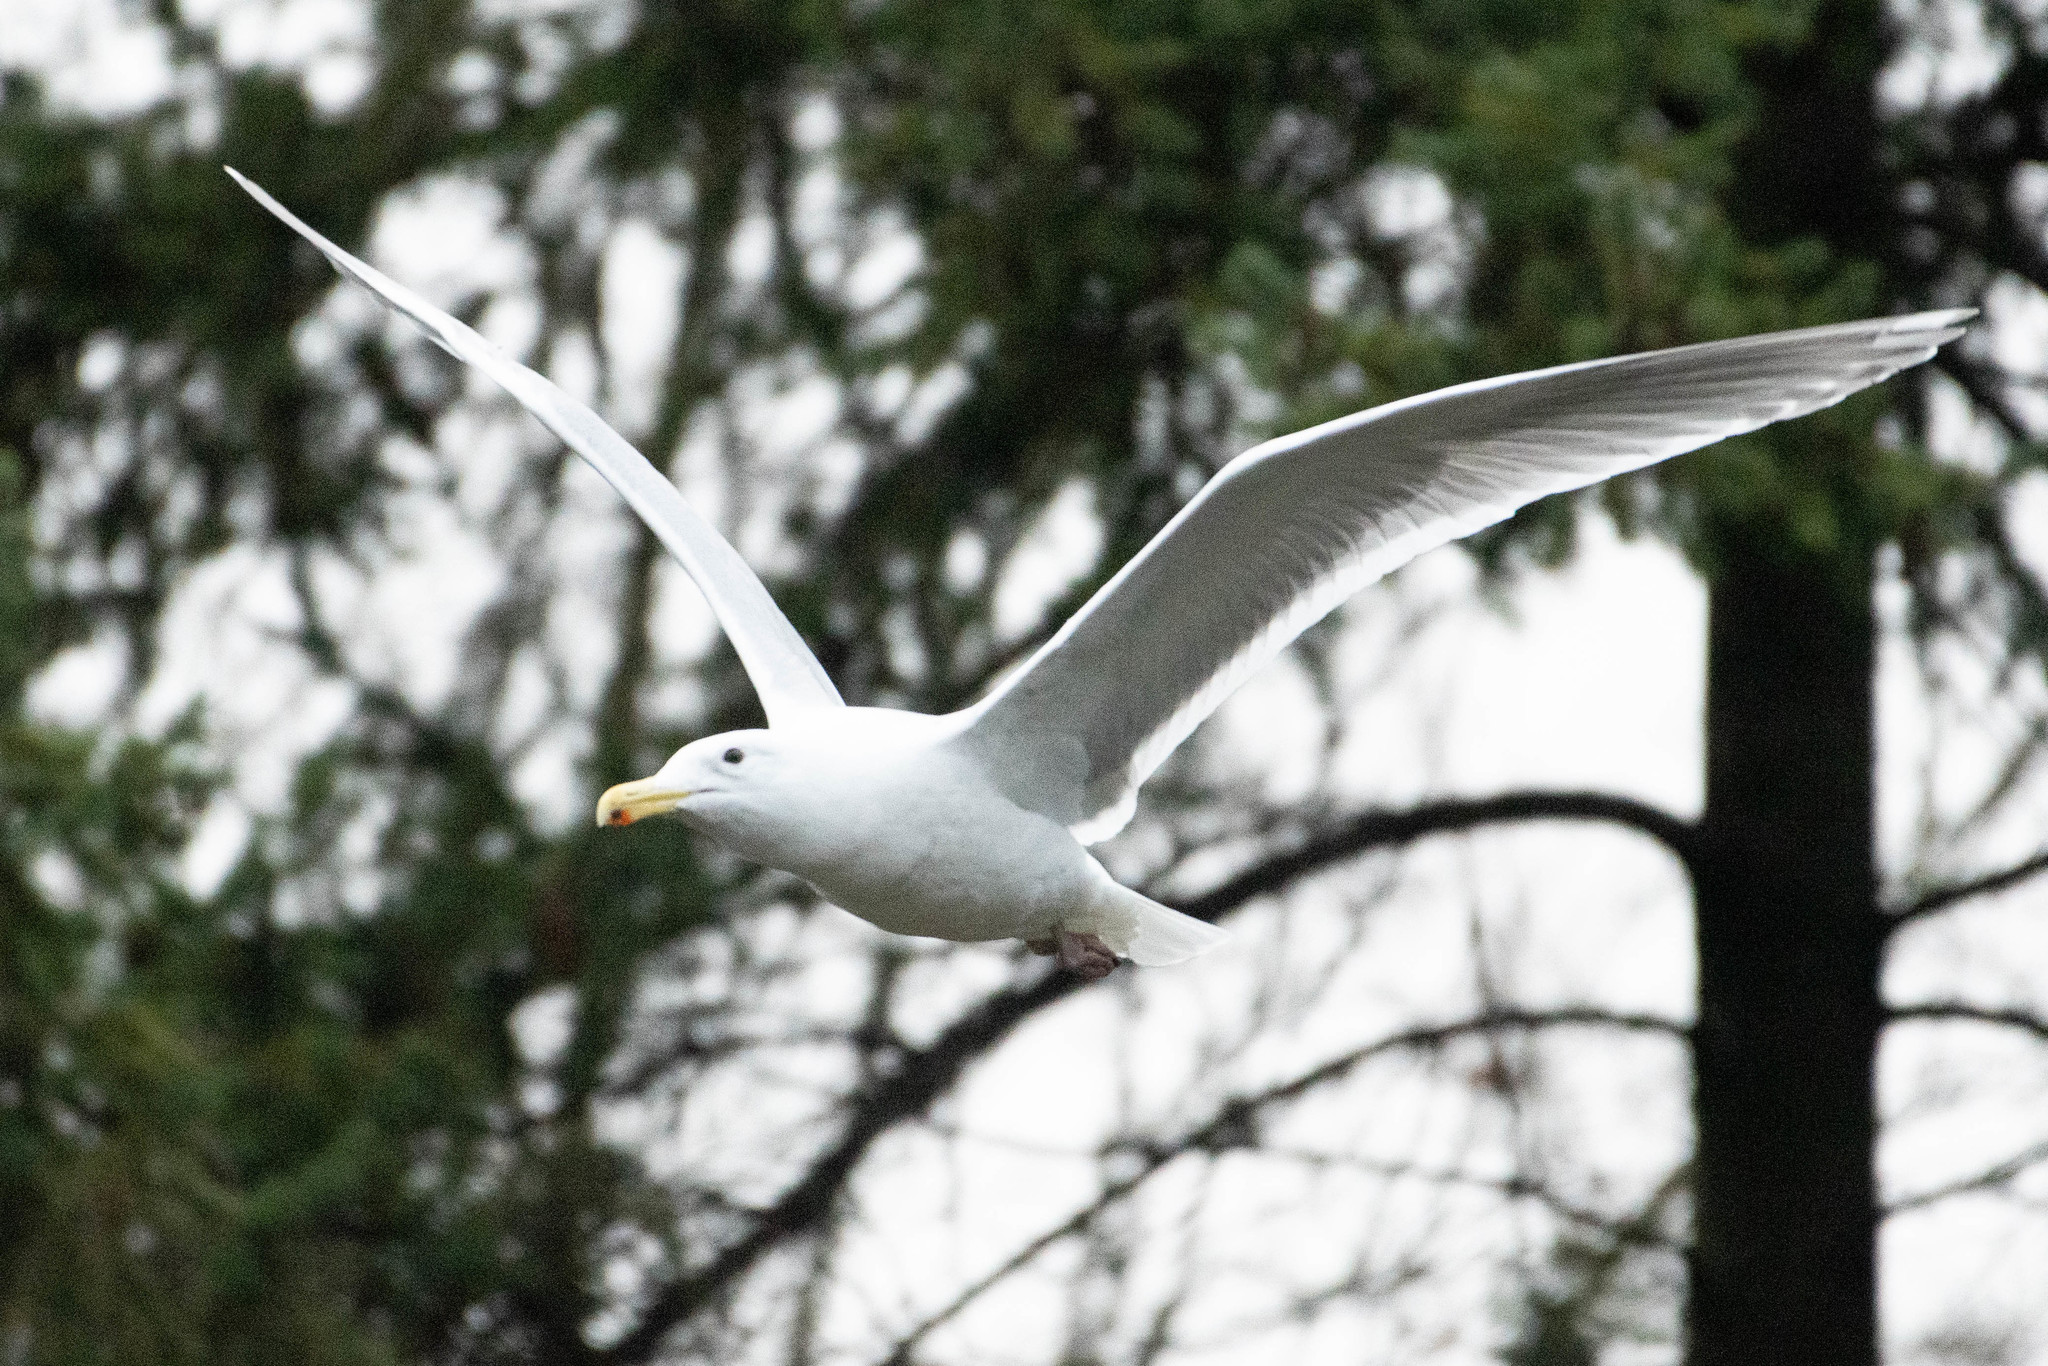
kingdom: Animalia
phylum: Chordata
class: Aves
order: Charadriiformes
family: Laridae
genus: Larus
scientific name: Larus glaucescens
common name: Glaucous-winged gull
